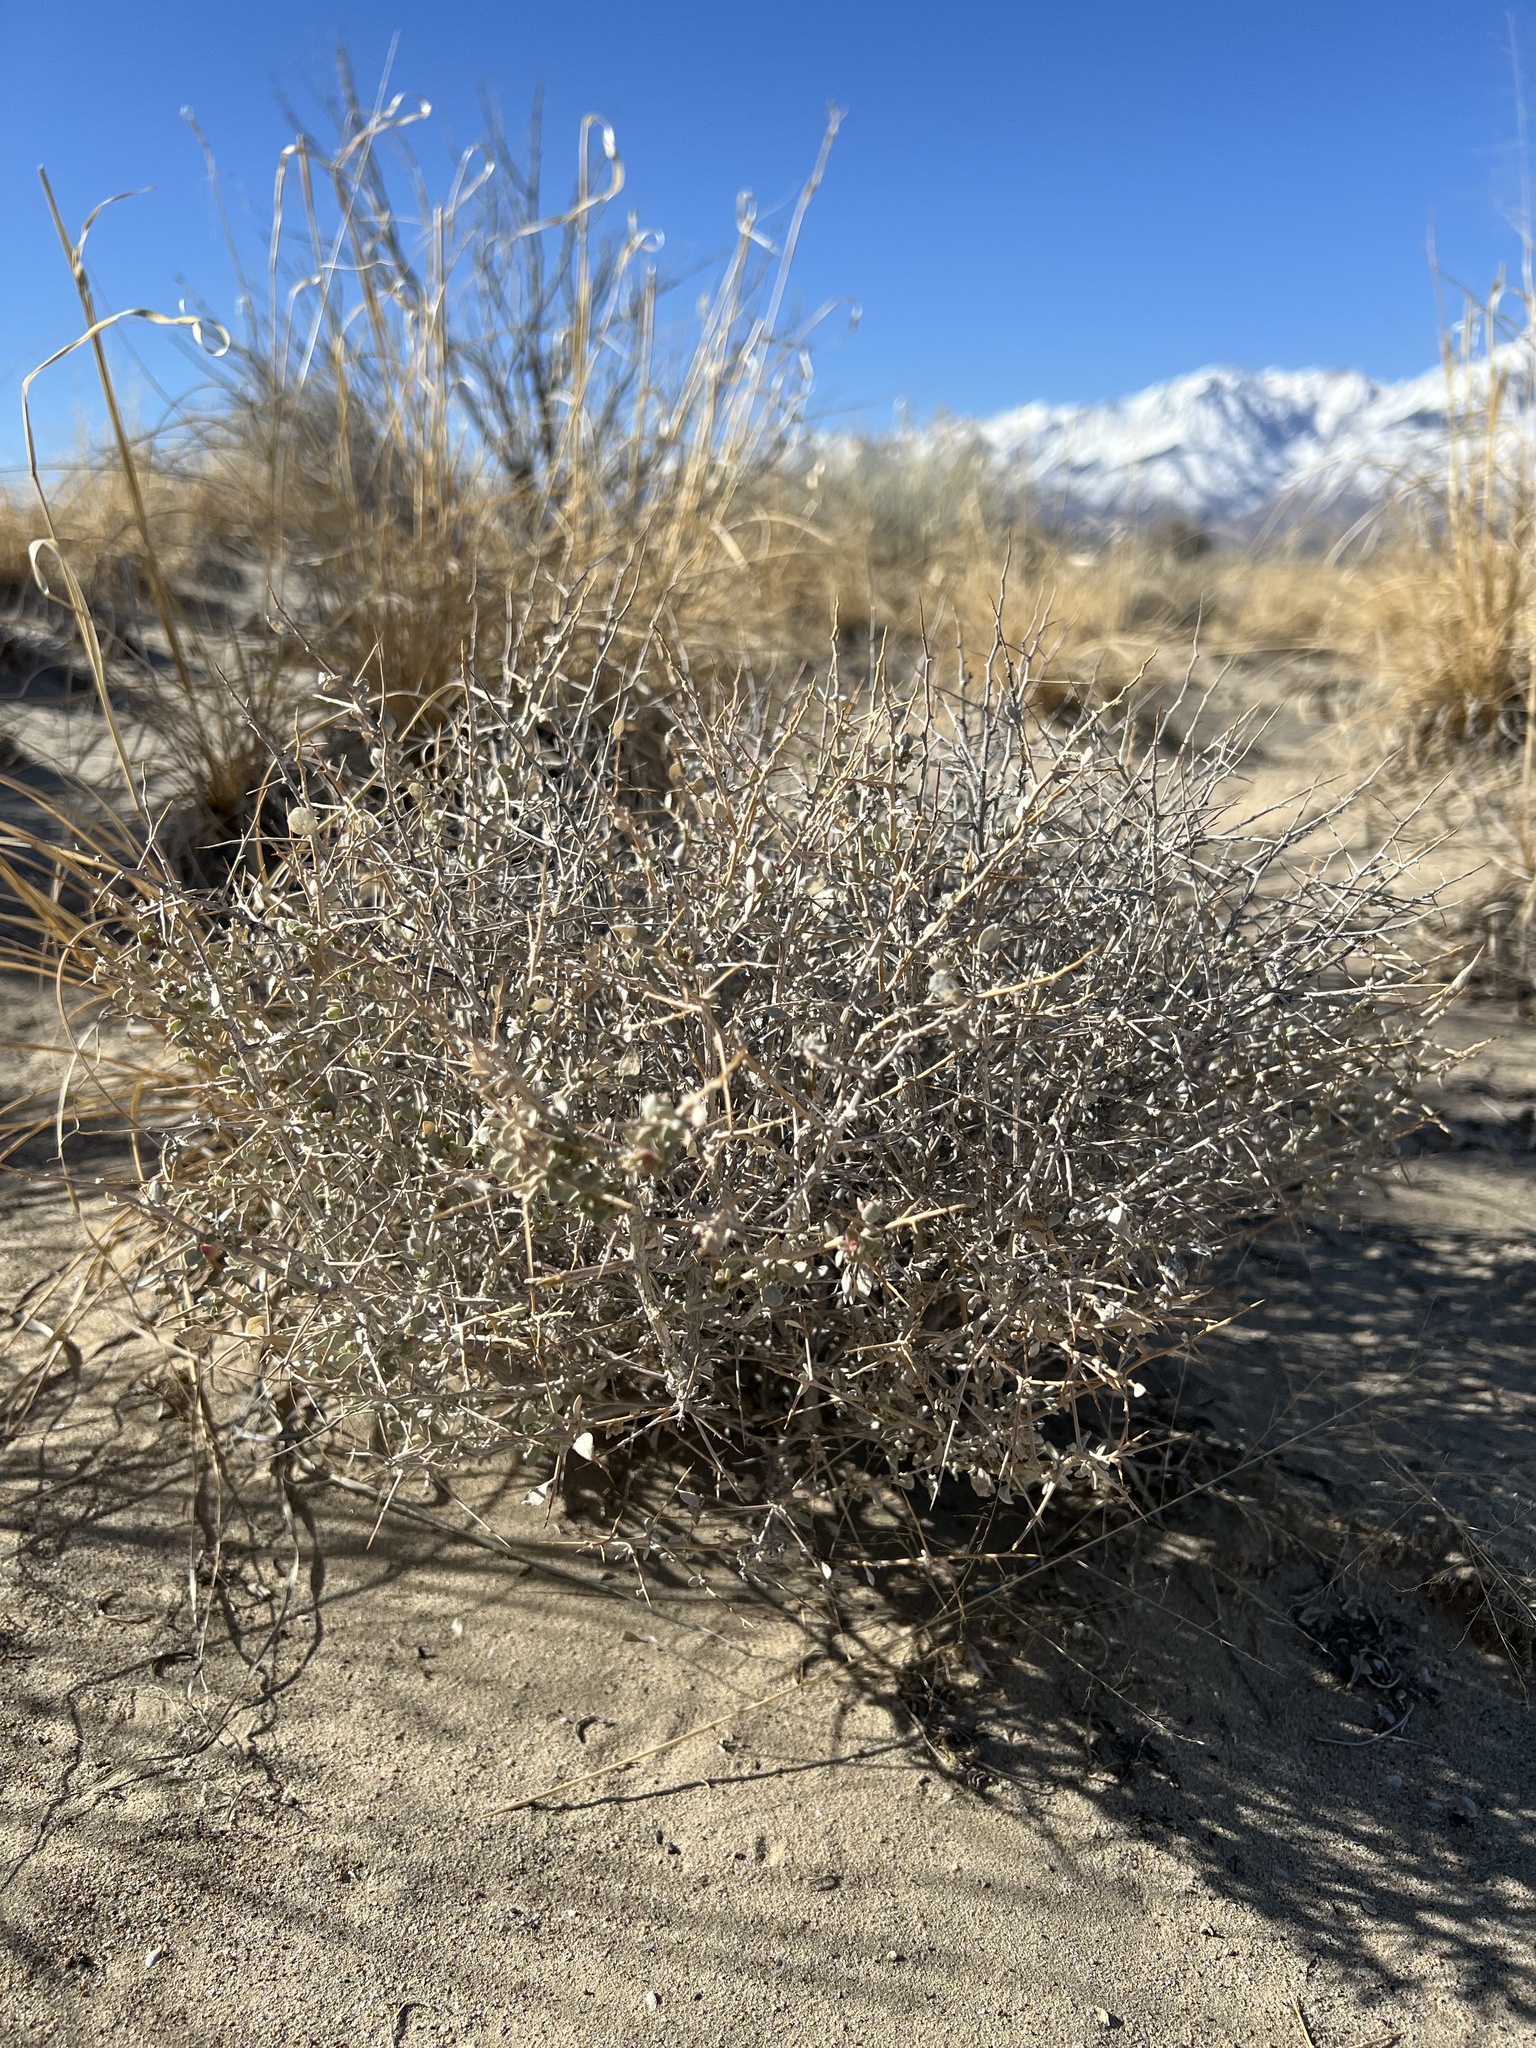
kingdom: Plantae
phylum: Tracheophyta
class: Magnoliopsida
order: Caryophyllales
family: Amaranthaceae
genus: Atriplex
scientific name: Atriplex confertifolia
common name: Shadscale
